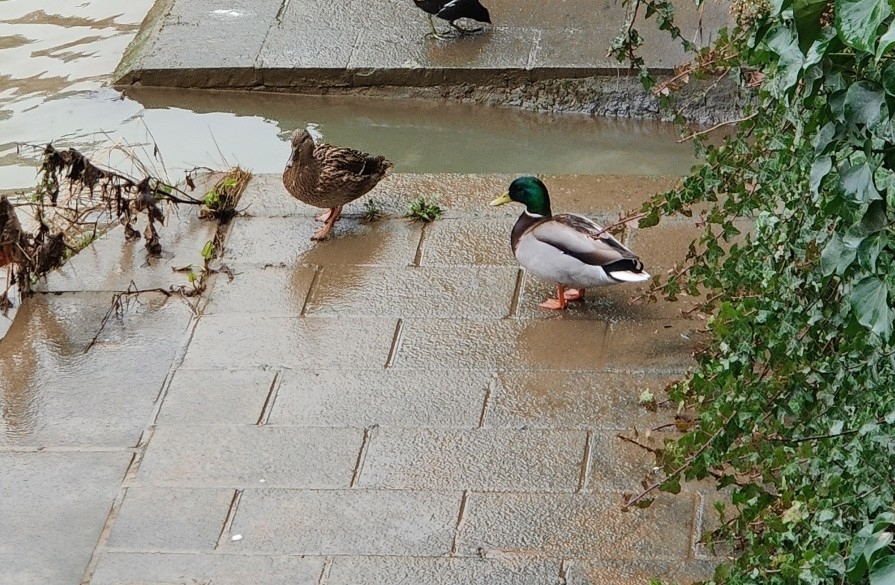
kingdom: Animalia
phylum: Chordata
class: Aves
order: Anseriformes
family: Anatidae
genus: Anas
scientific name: Anas platyrhynchos
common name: Mallard
